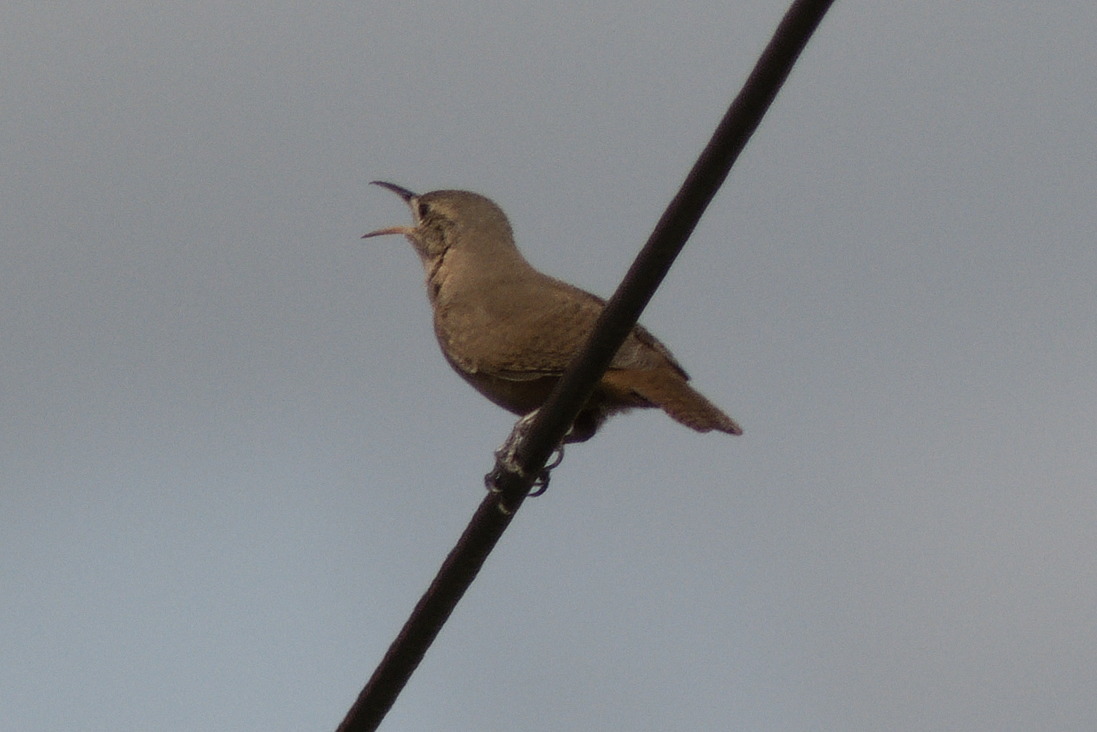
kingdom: Animalia
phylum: Chordata
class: Aves
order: Passeriformes
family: Troglodytidae
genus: Troglodytes
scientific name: Troglodytes aedon
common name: House wren
